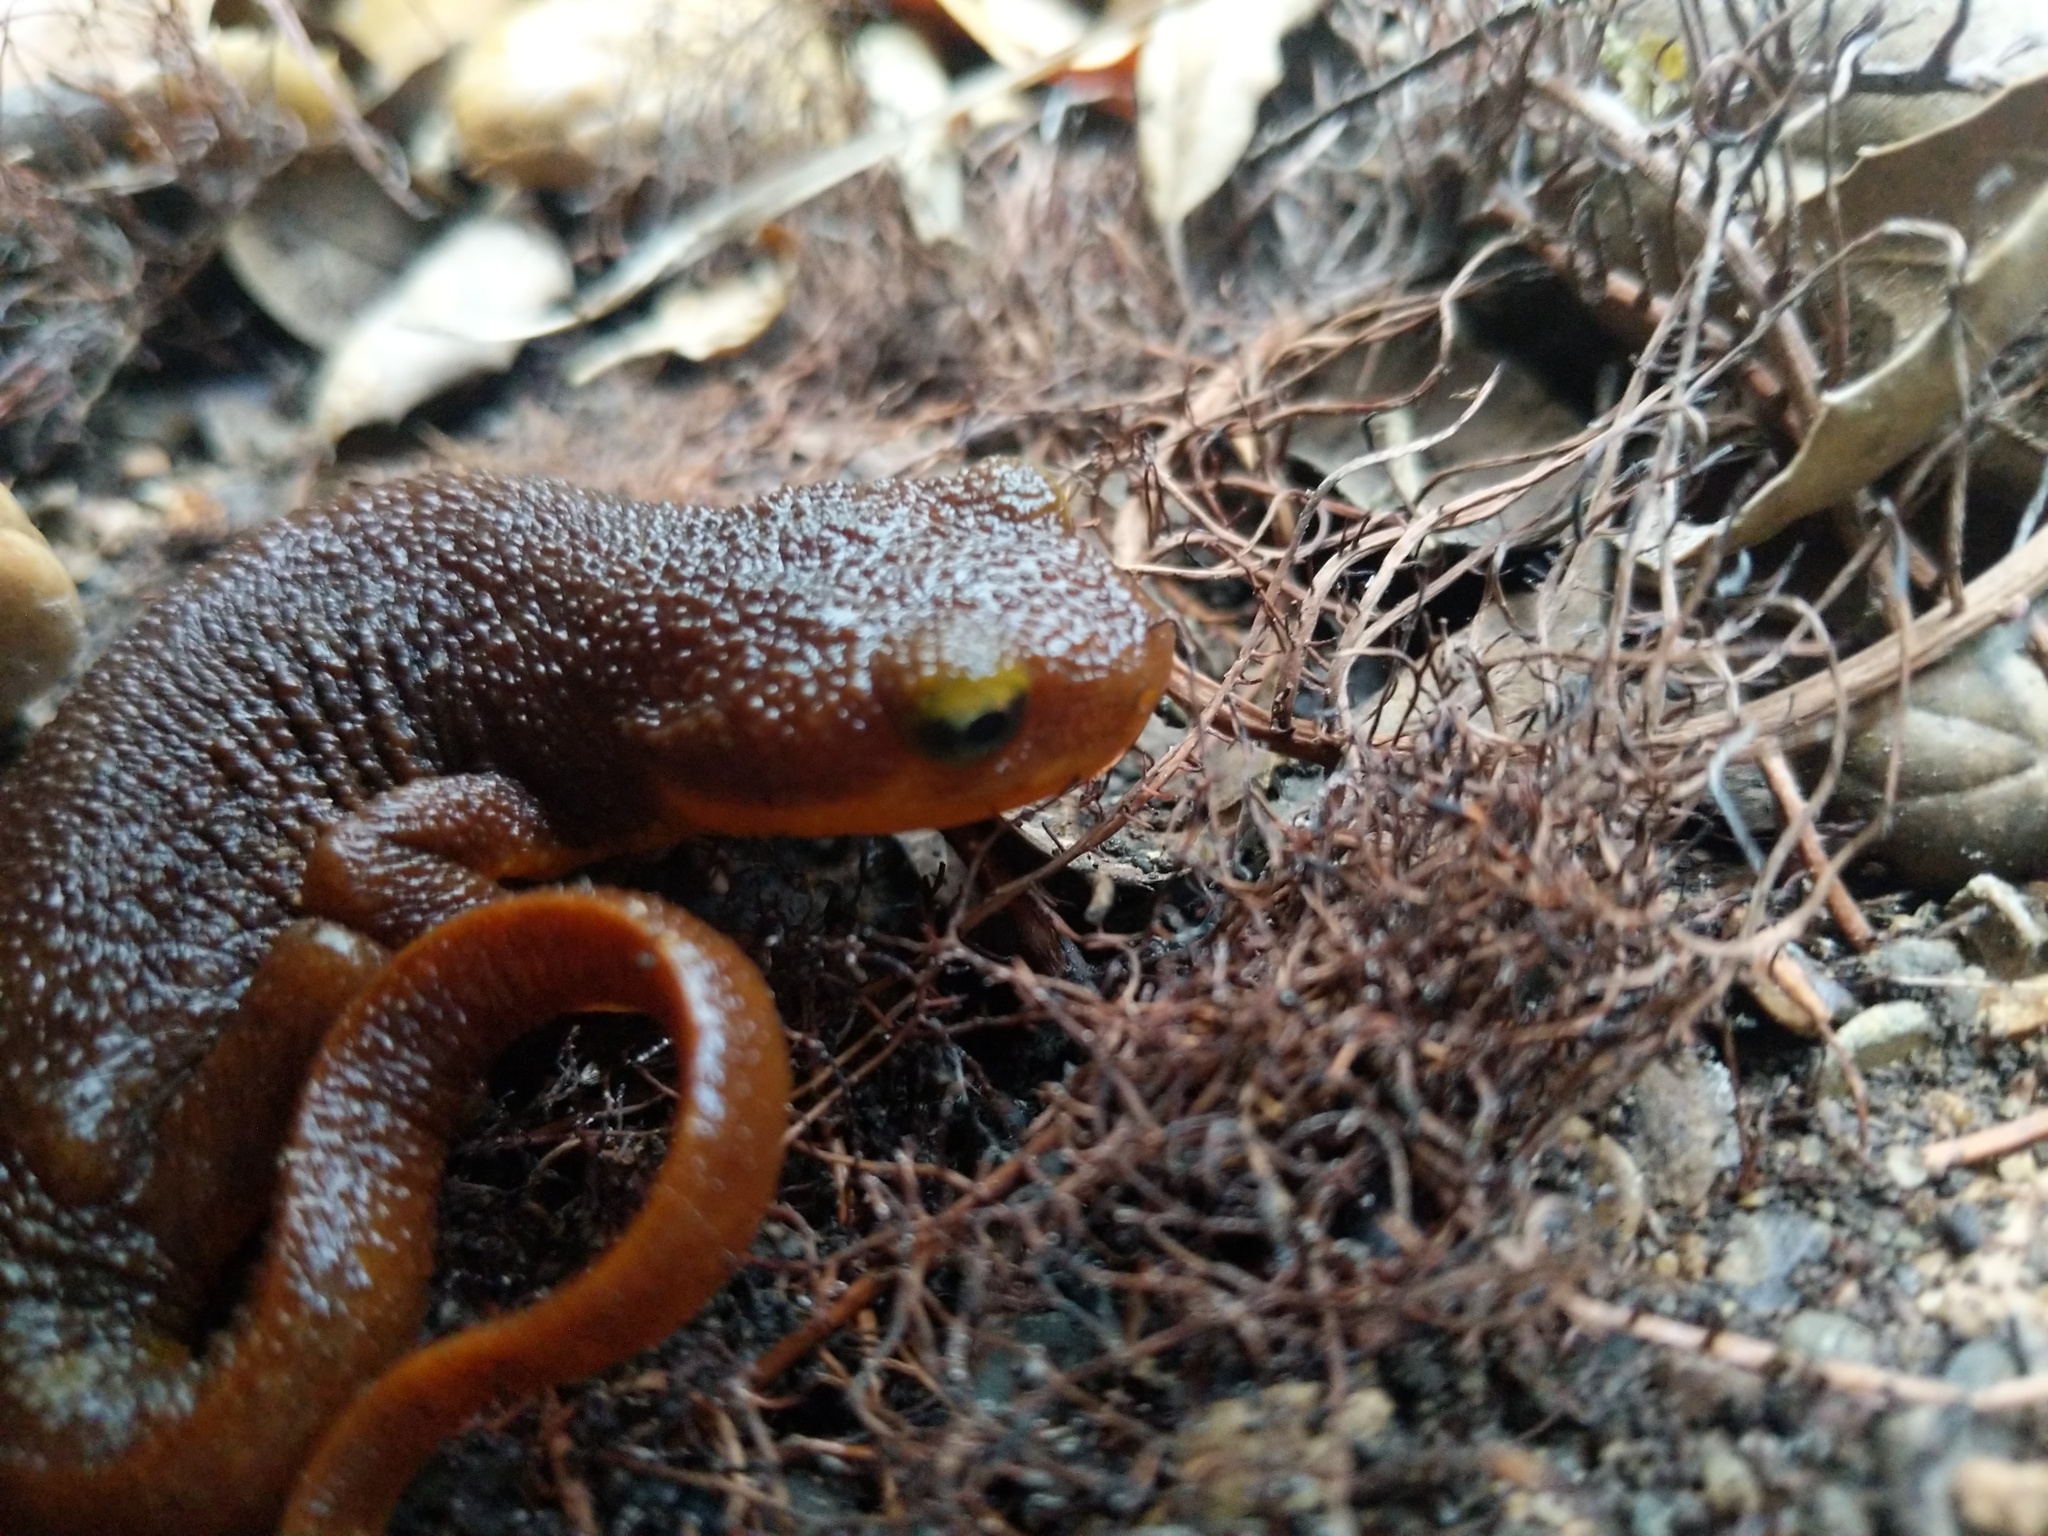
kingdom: Animalia
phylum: Chordata
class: Amphibia
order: Caudata
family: Salamandridae
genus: Taricha
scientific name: Taricha torosa
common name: California newt
